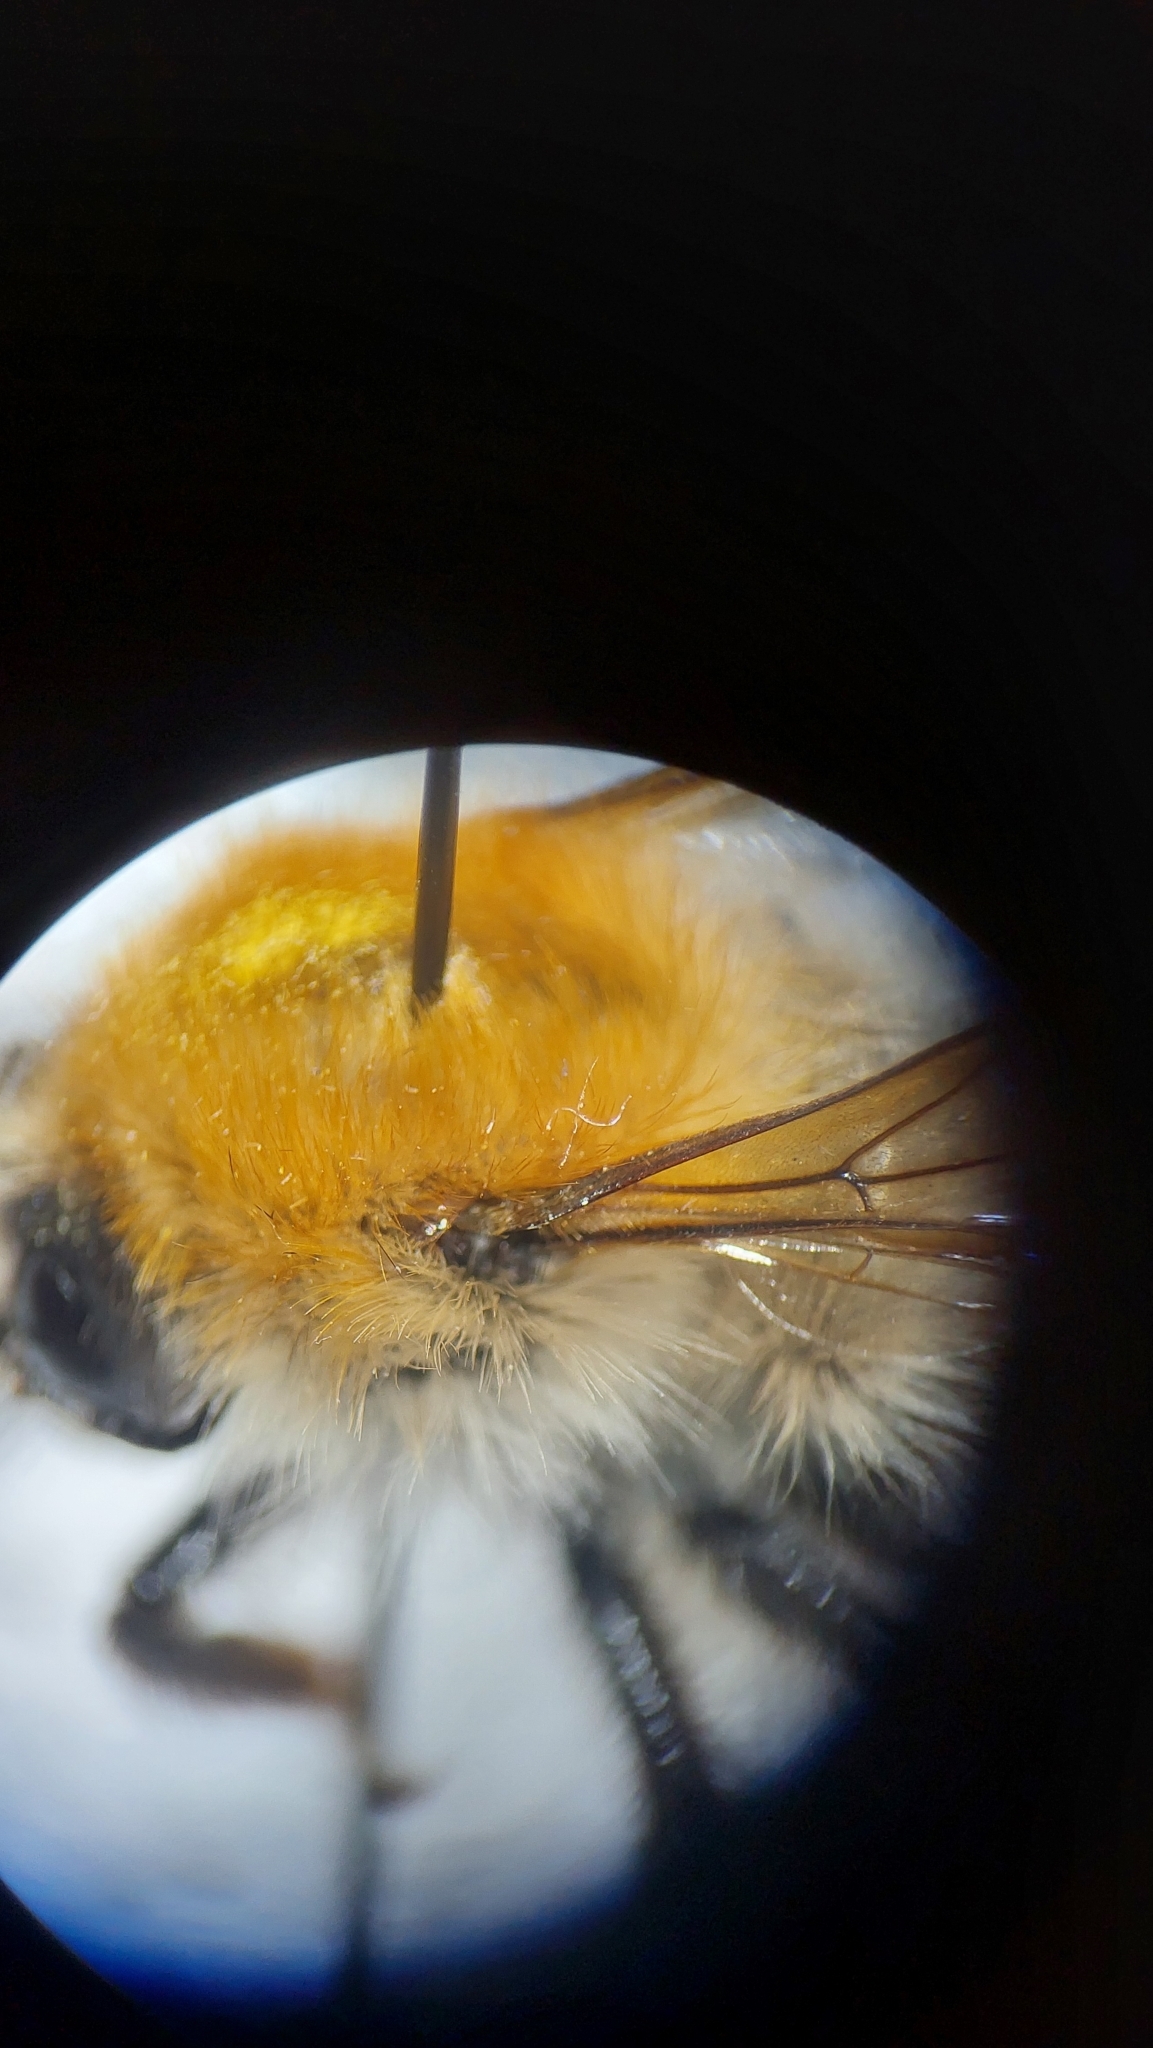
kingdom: Animalia
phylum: Arthropoda
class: Insecta
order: Hymenoptera
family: Apidae
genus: Bombus
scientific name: Bombus pascuorum
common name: Common carder bee
